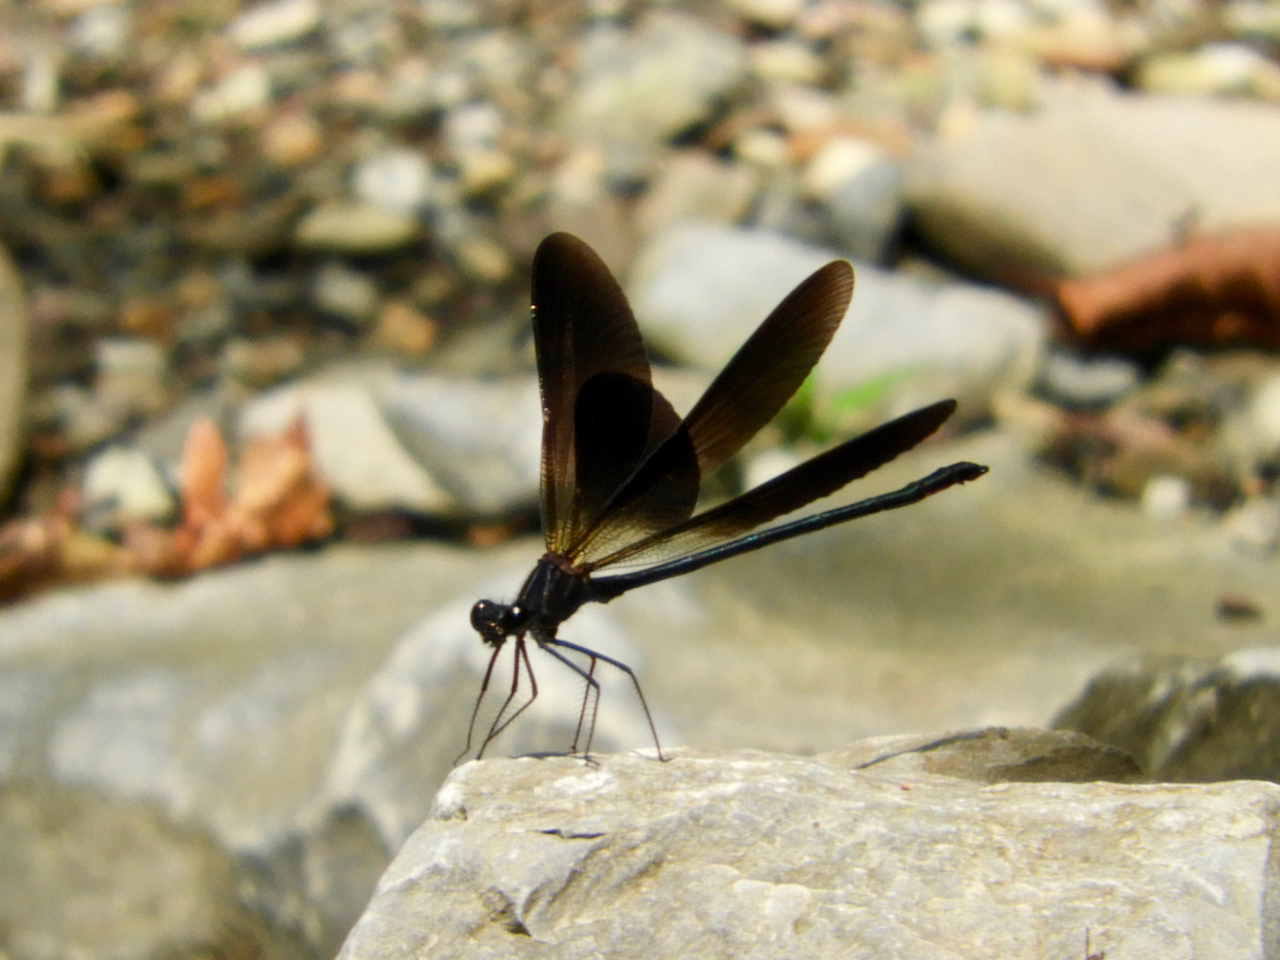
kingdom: Animalia
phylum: Arthropoda
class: Insecta
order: Odonata
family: Calopterygidae
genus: Calopteryx
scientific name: Calopteryx haemorrhoidalis
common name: Copper demoiselle
